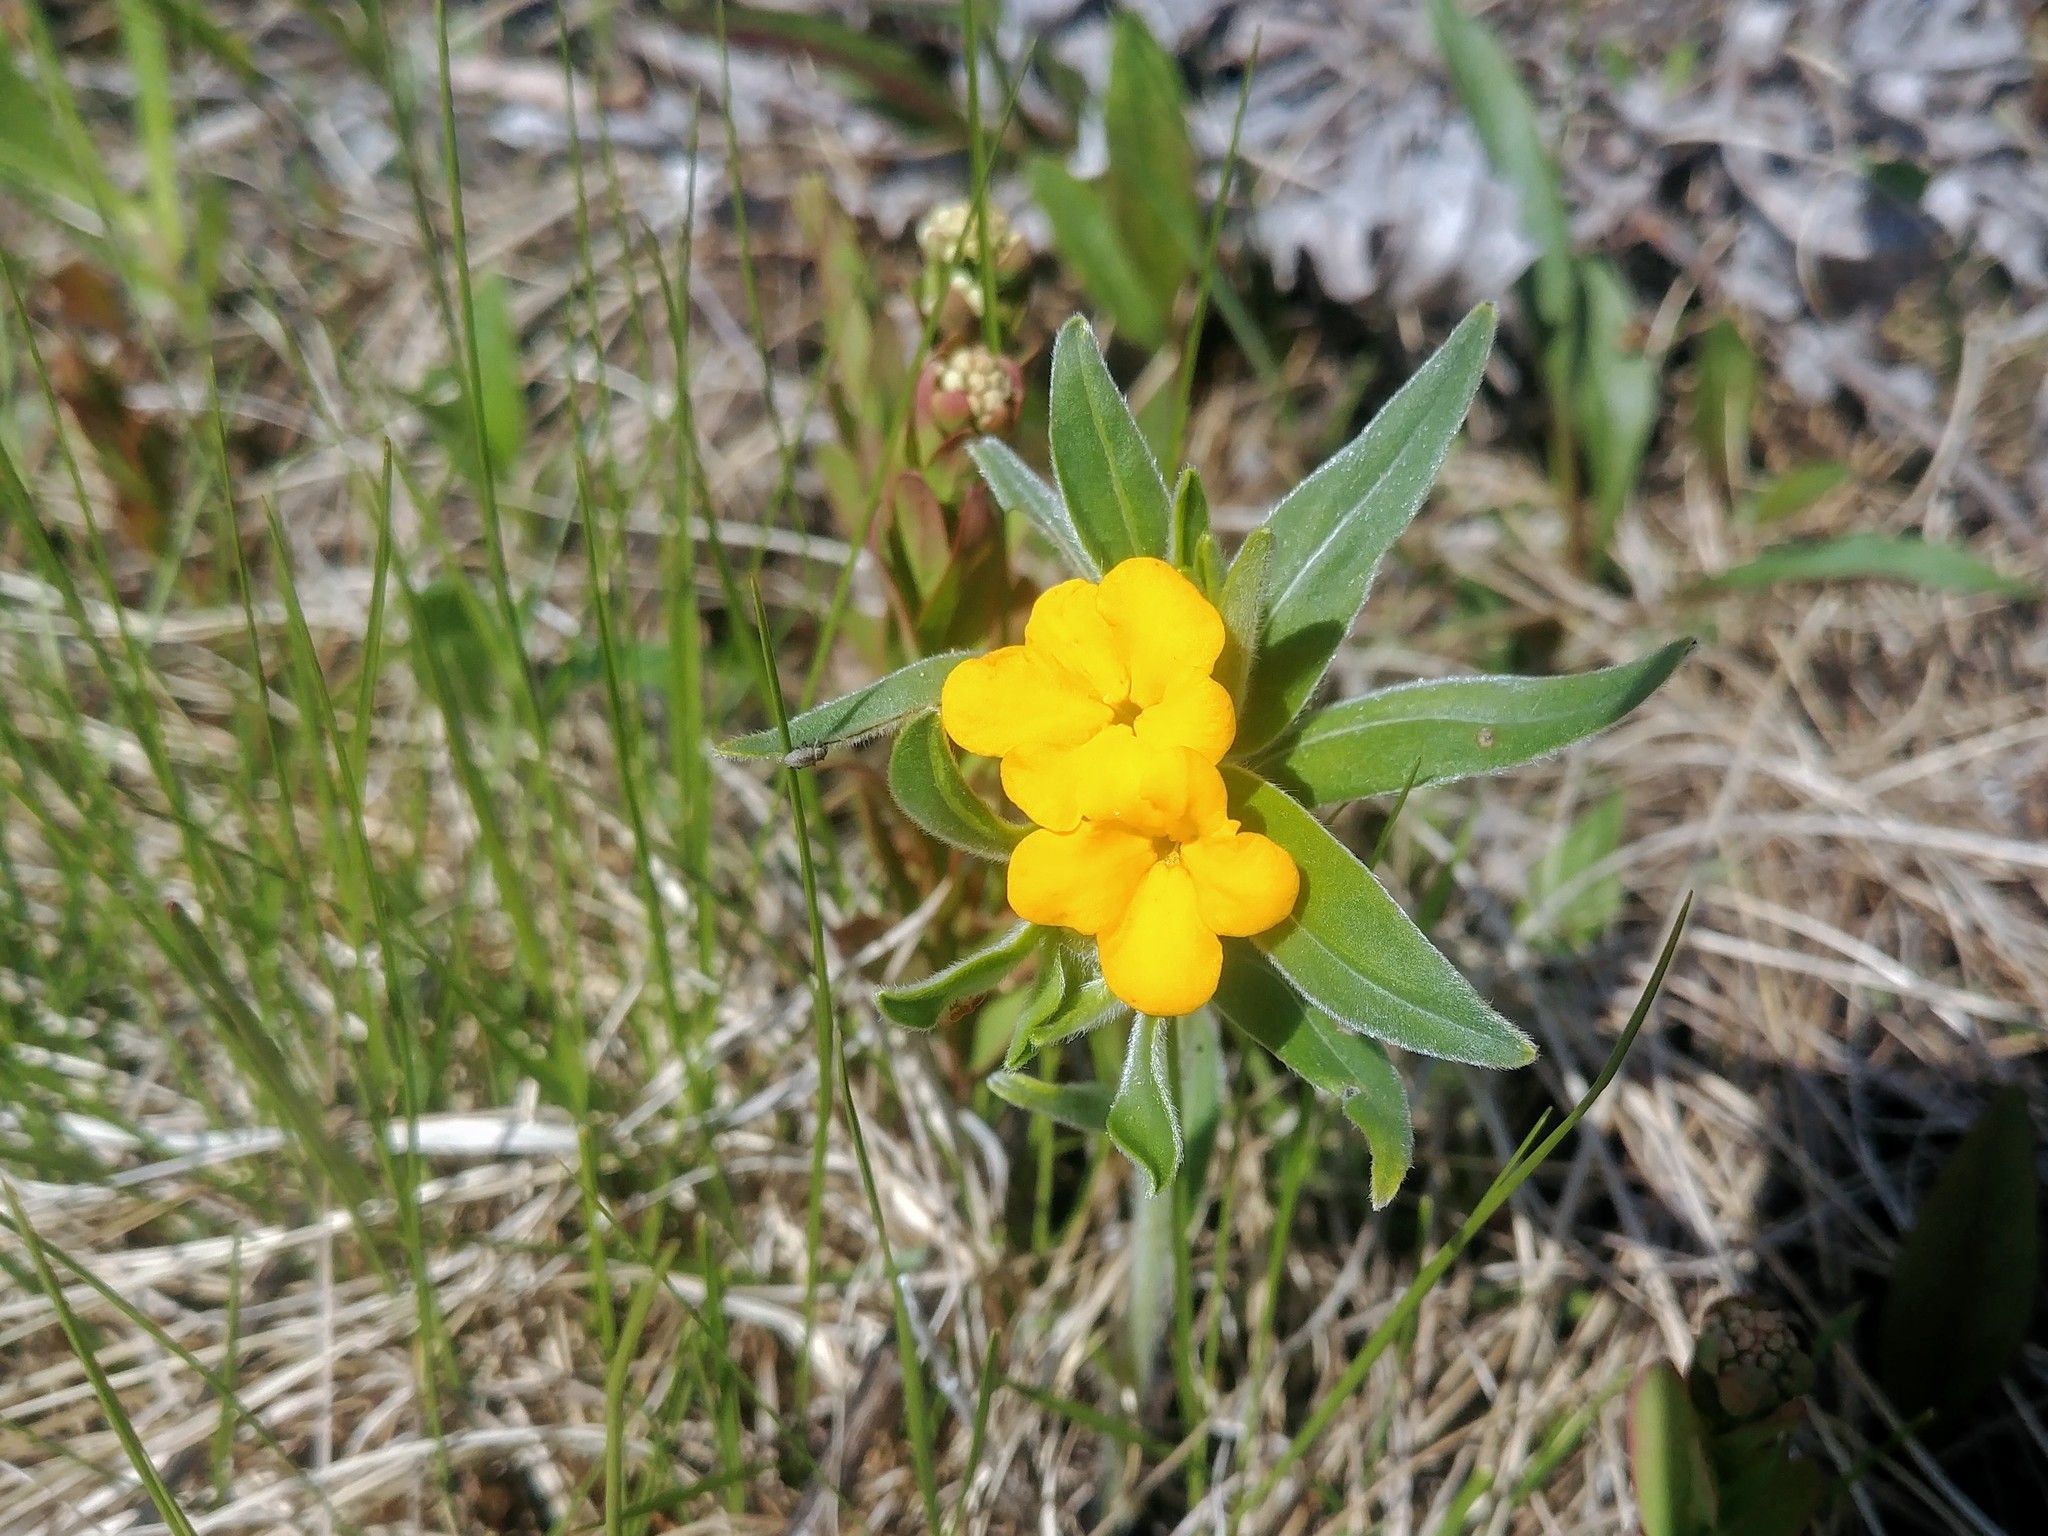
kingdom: Plantae
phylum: Tracheophyta
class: Magnoliopsida
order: Boraginales
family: Boraginaceae
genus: Lithospermum
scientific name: Lithospermum canescens
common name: Hoary puccoon
